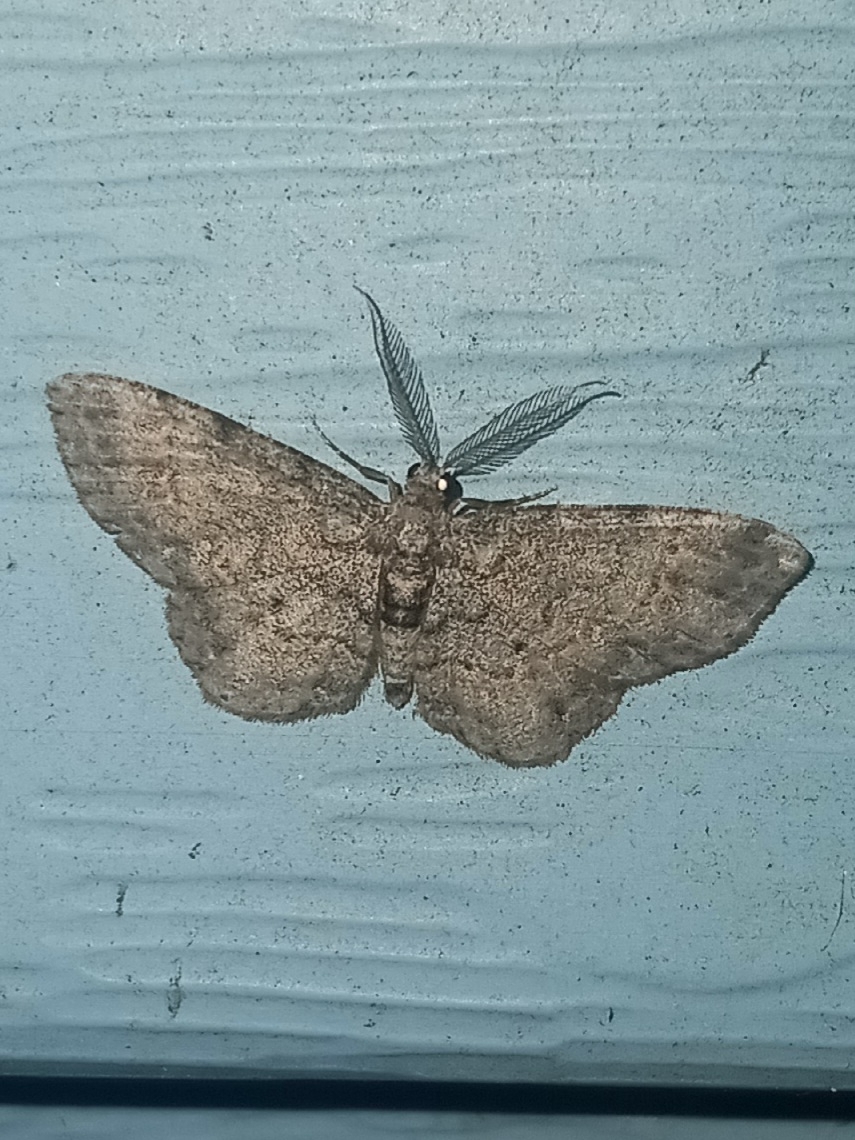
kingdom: Animalia
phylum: Arthropoda
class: Insecta
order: Lepidoptera
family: Geometridae
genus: Glenoides
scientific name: Glenoides texanaria
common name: Texas gray
